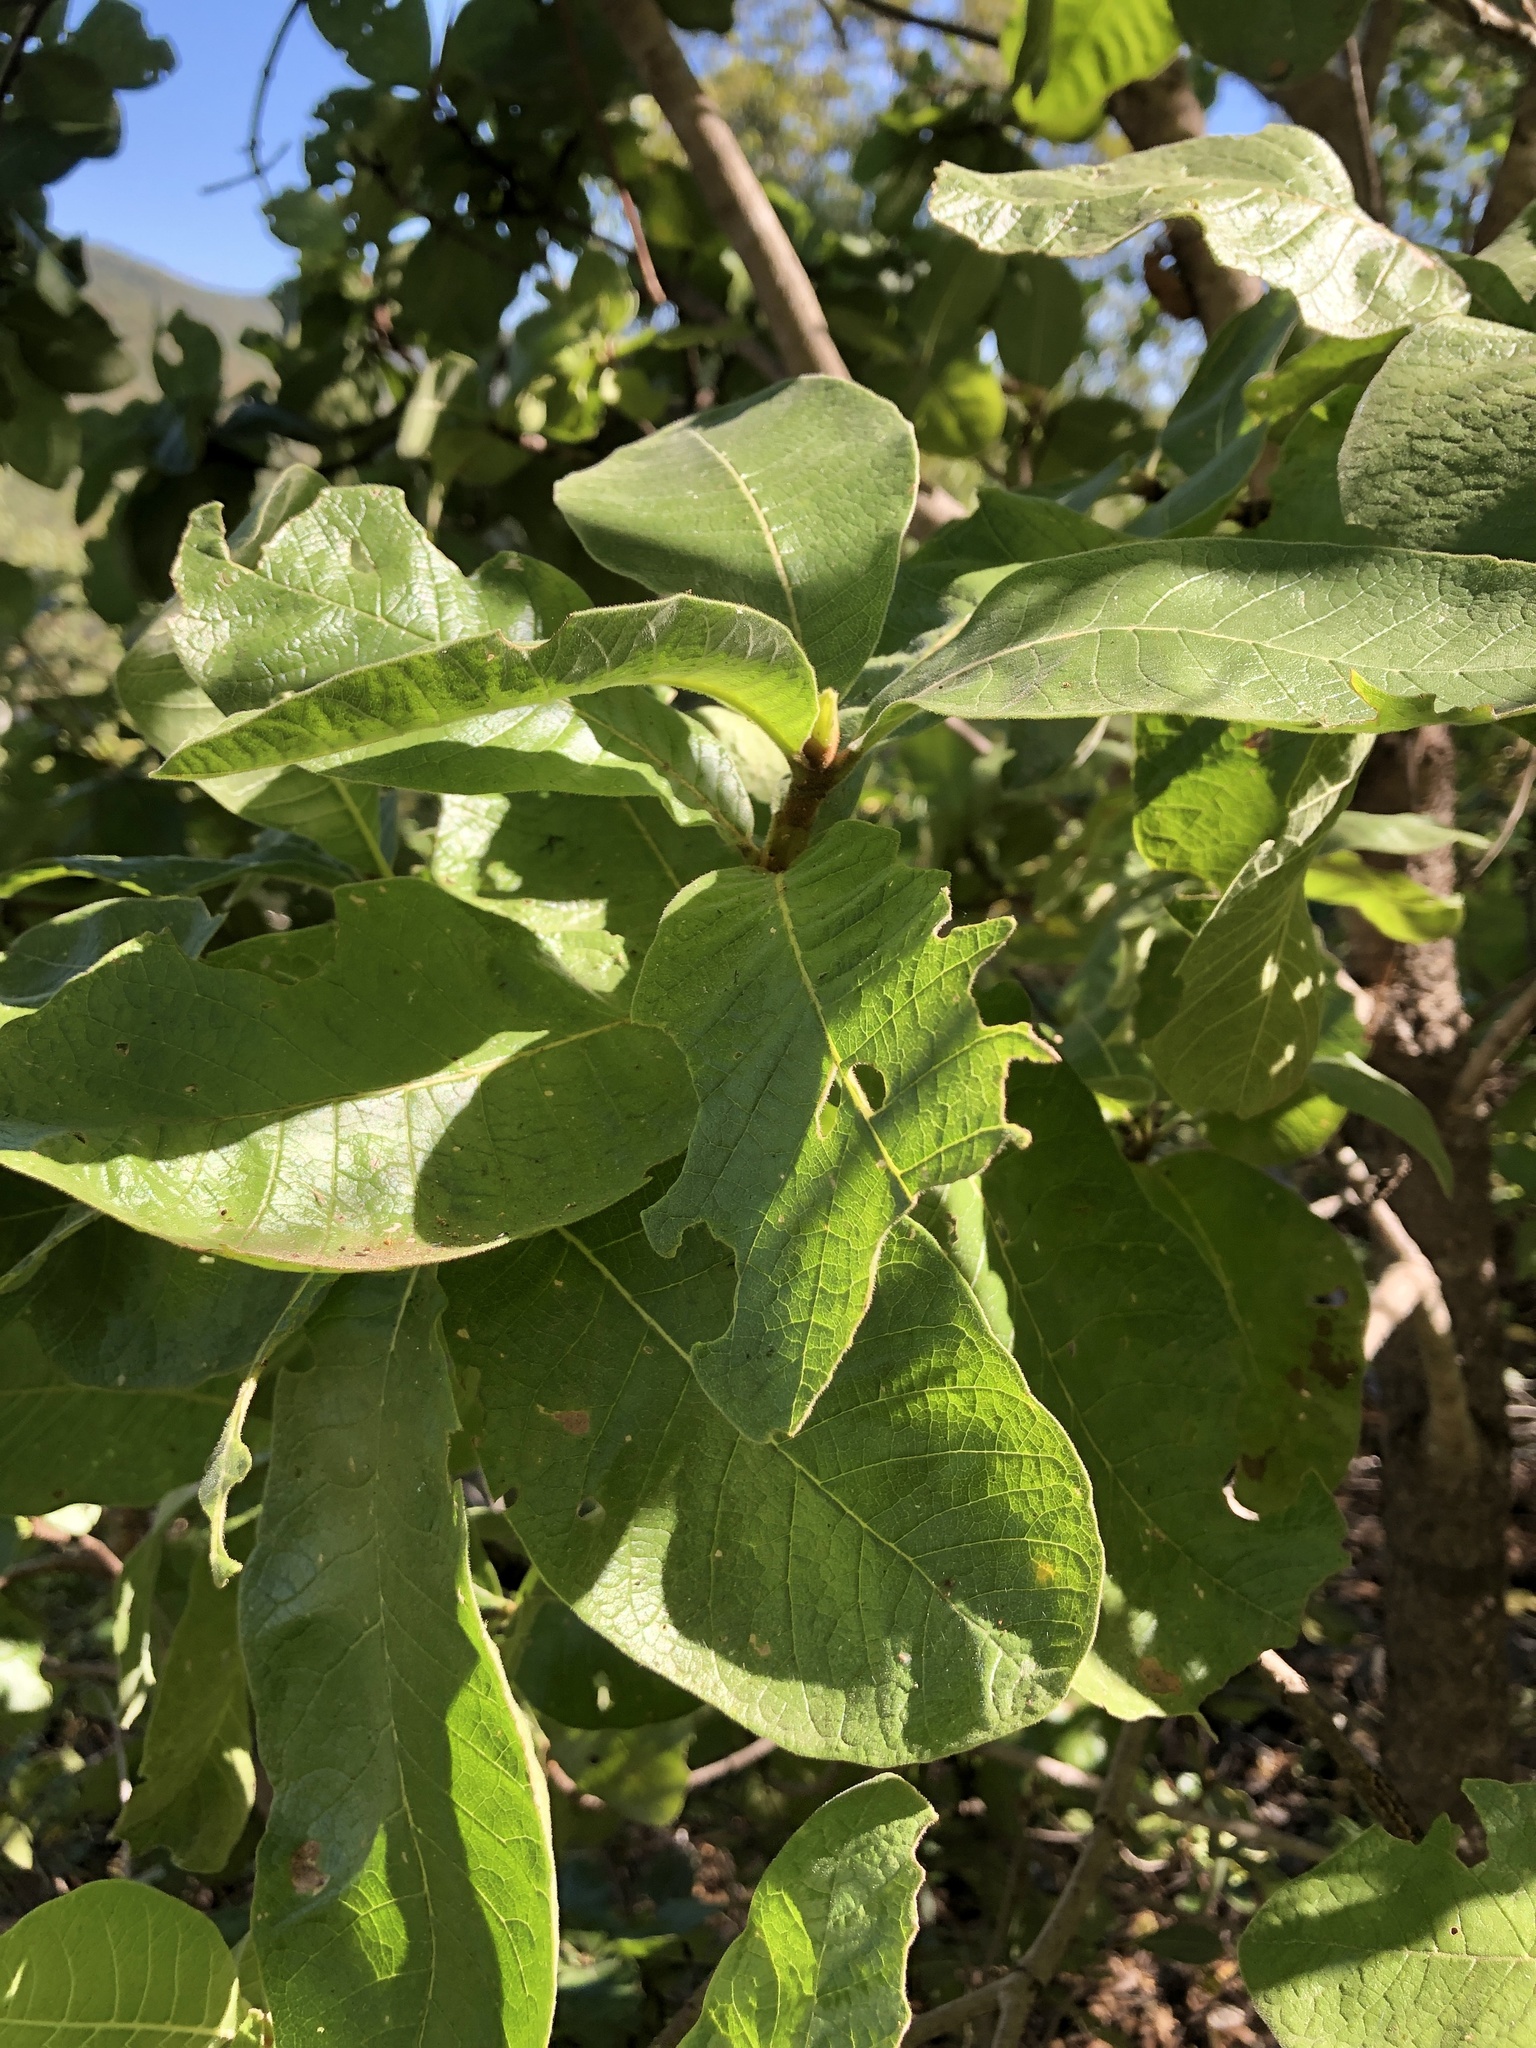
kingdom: Plantae
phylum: Tracheophyta
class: Magnoliopsida
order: Gentianales
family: Rubiaceae
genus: Larsenaikia
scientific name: Larsenaikia ochreata
